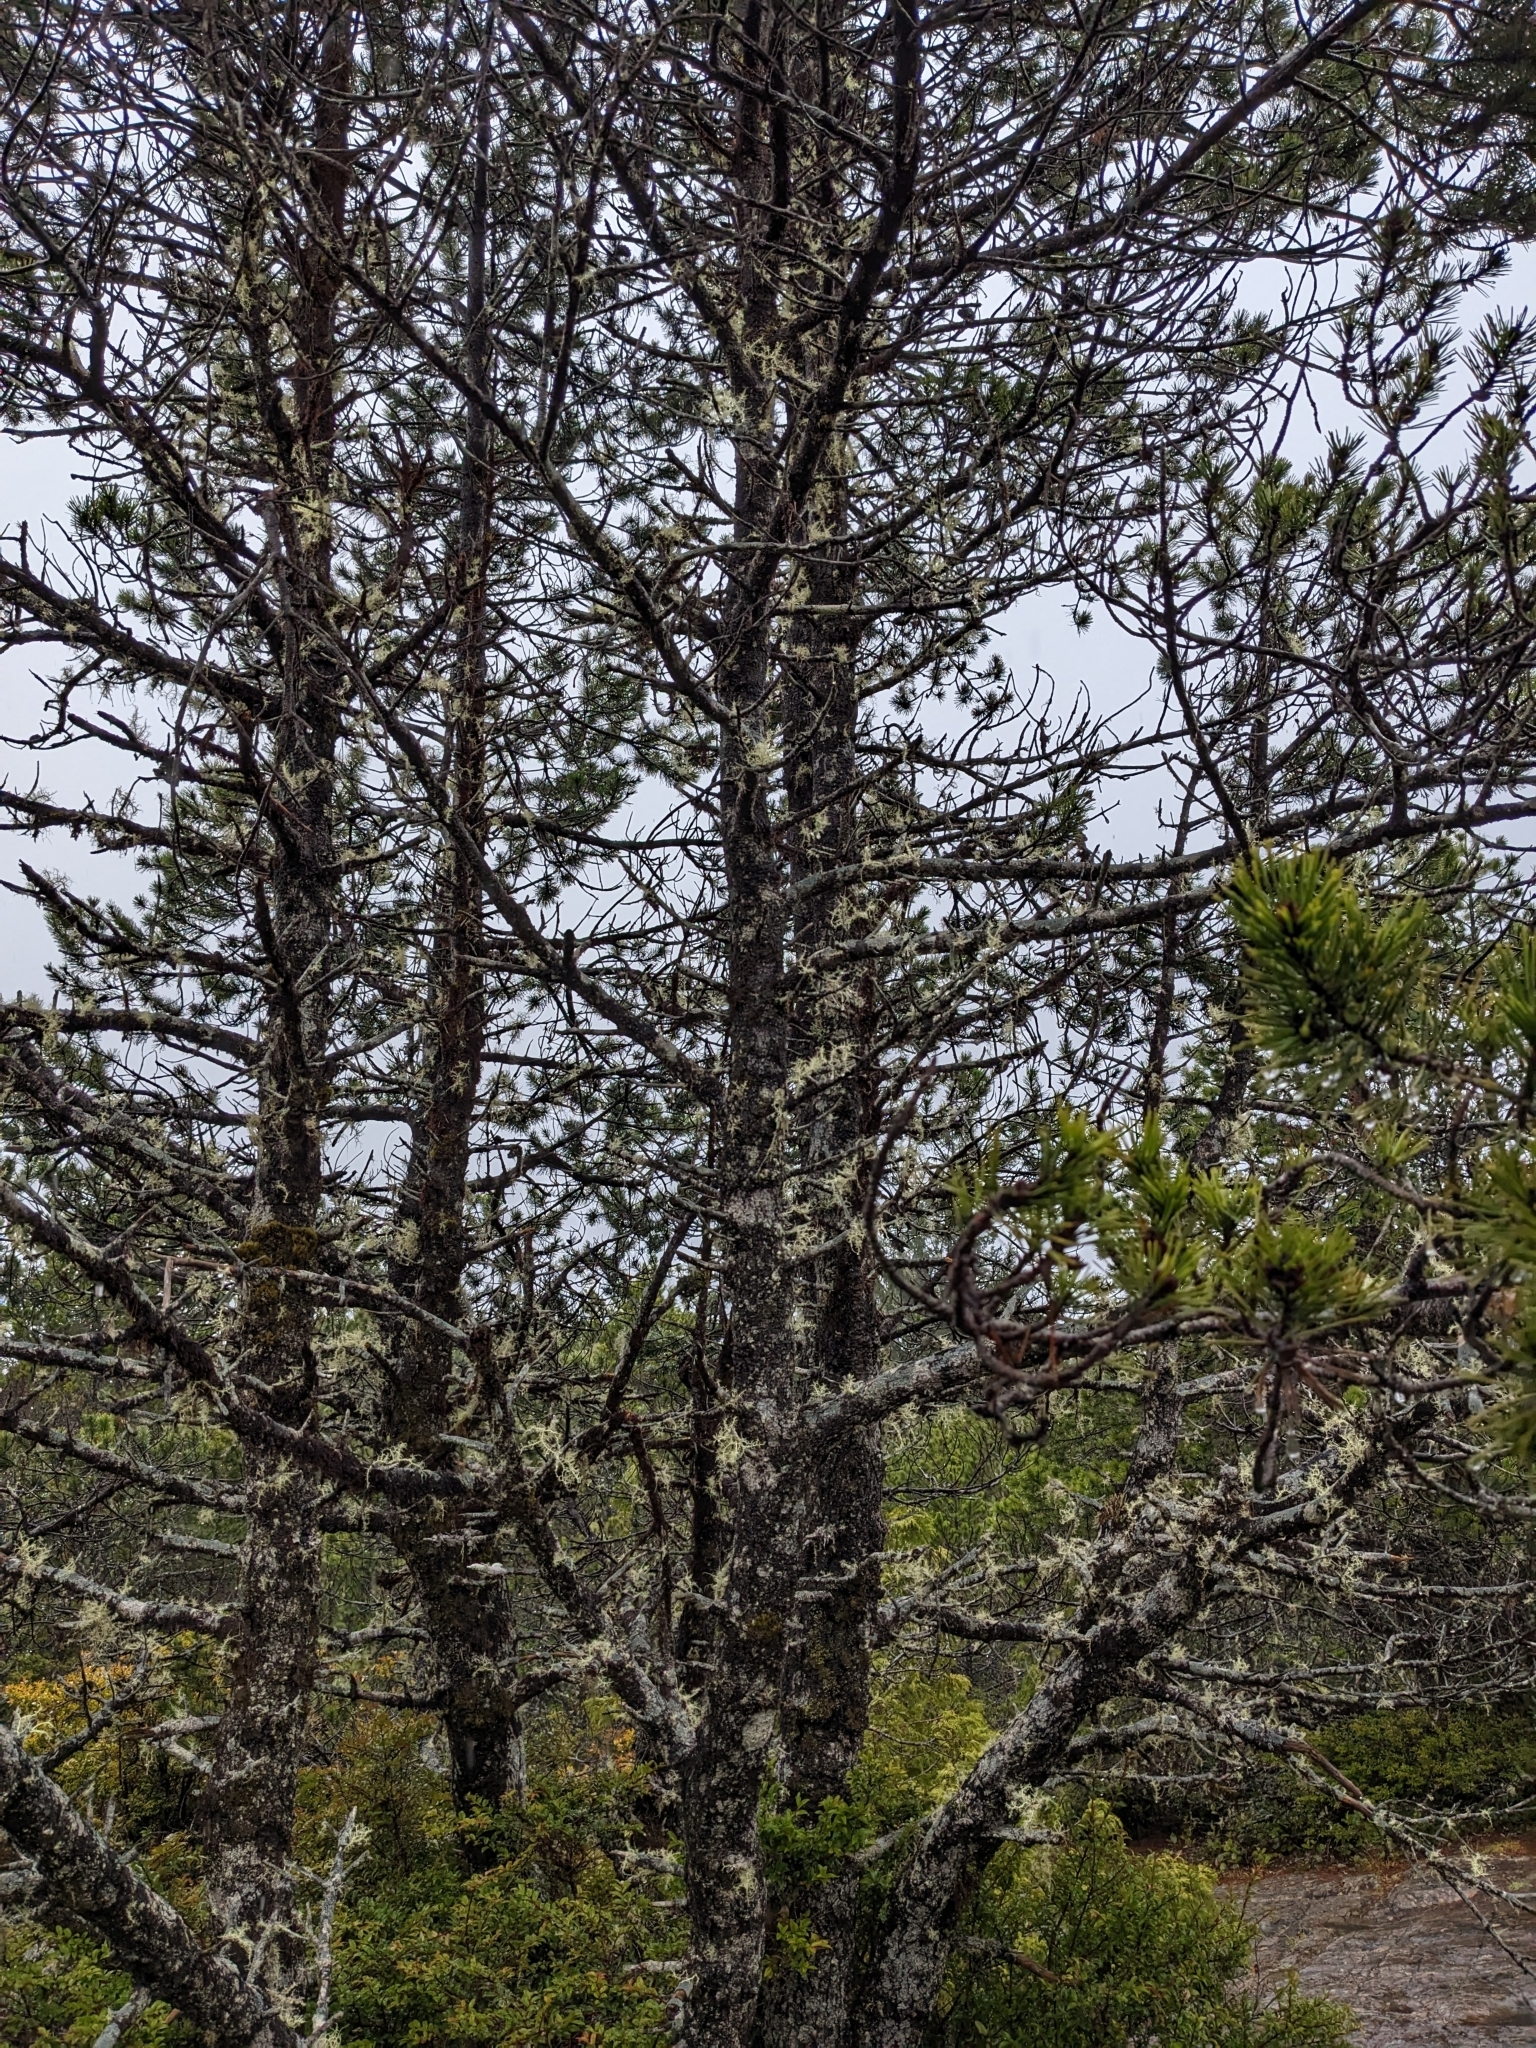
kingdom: Plantae
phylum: Tracheophyta
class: Pinopsida
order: Pinales
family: Pinaceae
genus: Pinus
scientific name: Pinus contorta
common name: Lodgepole pine
